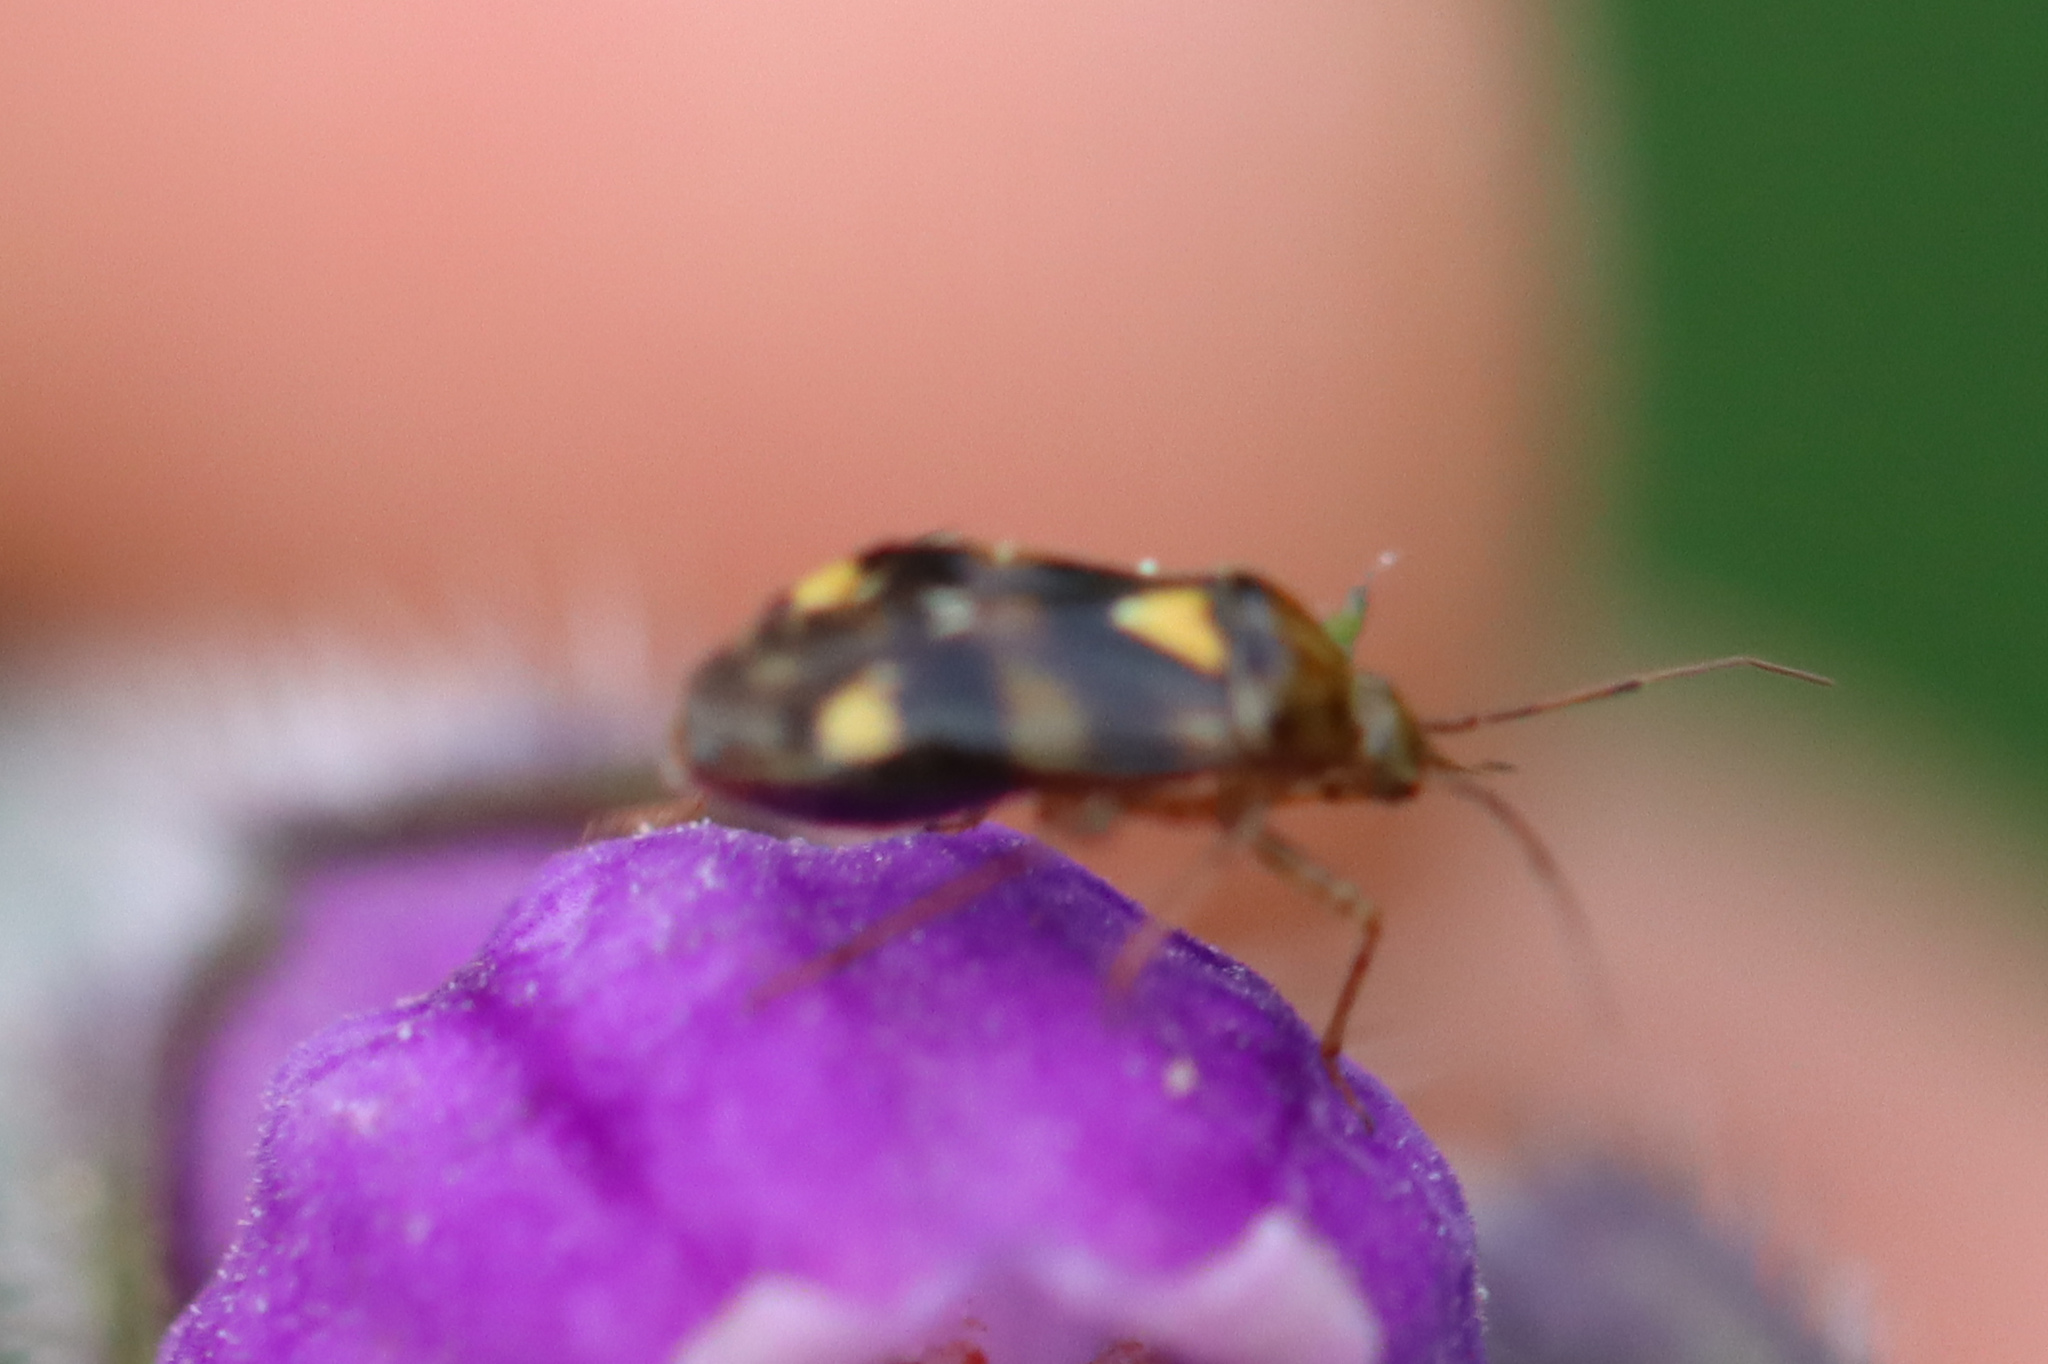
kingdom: Animalia
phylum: Arthropoda
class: Insecta
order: Hemiptera
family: Miridae
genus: Liocoris
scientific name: Liocoris tripustulatus
